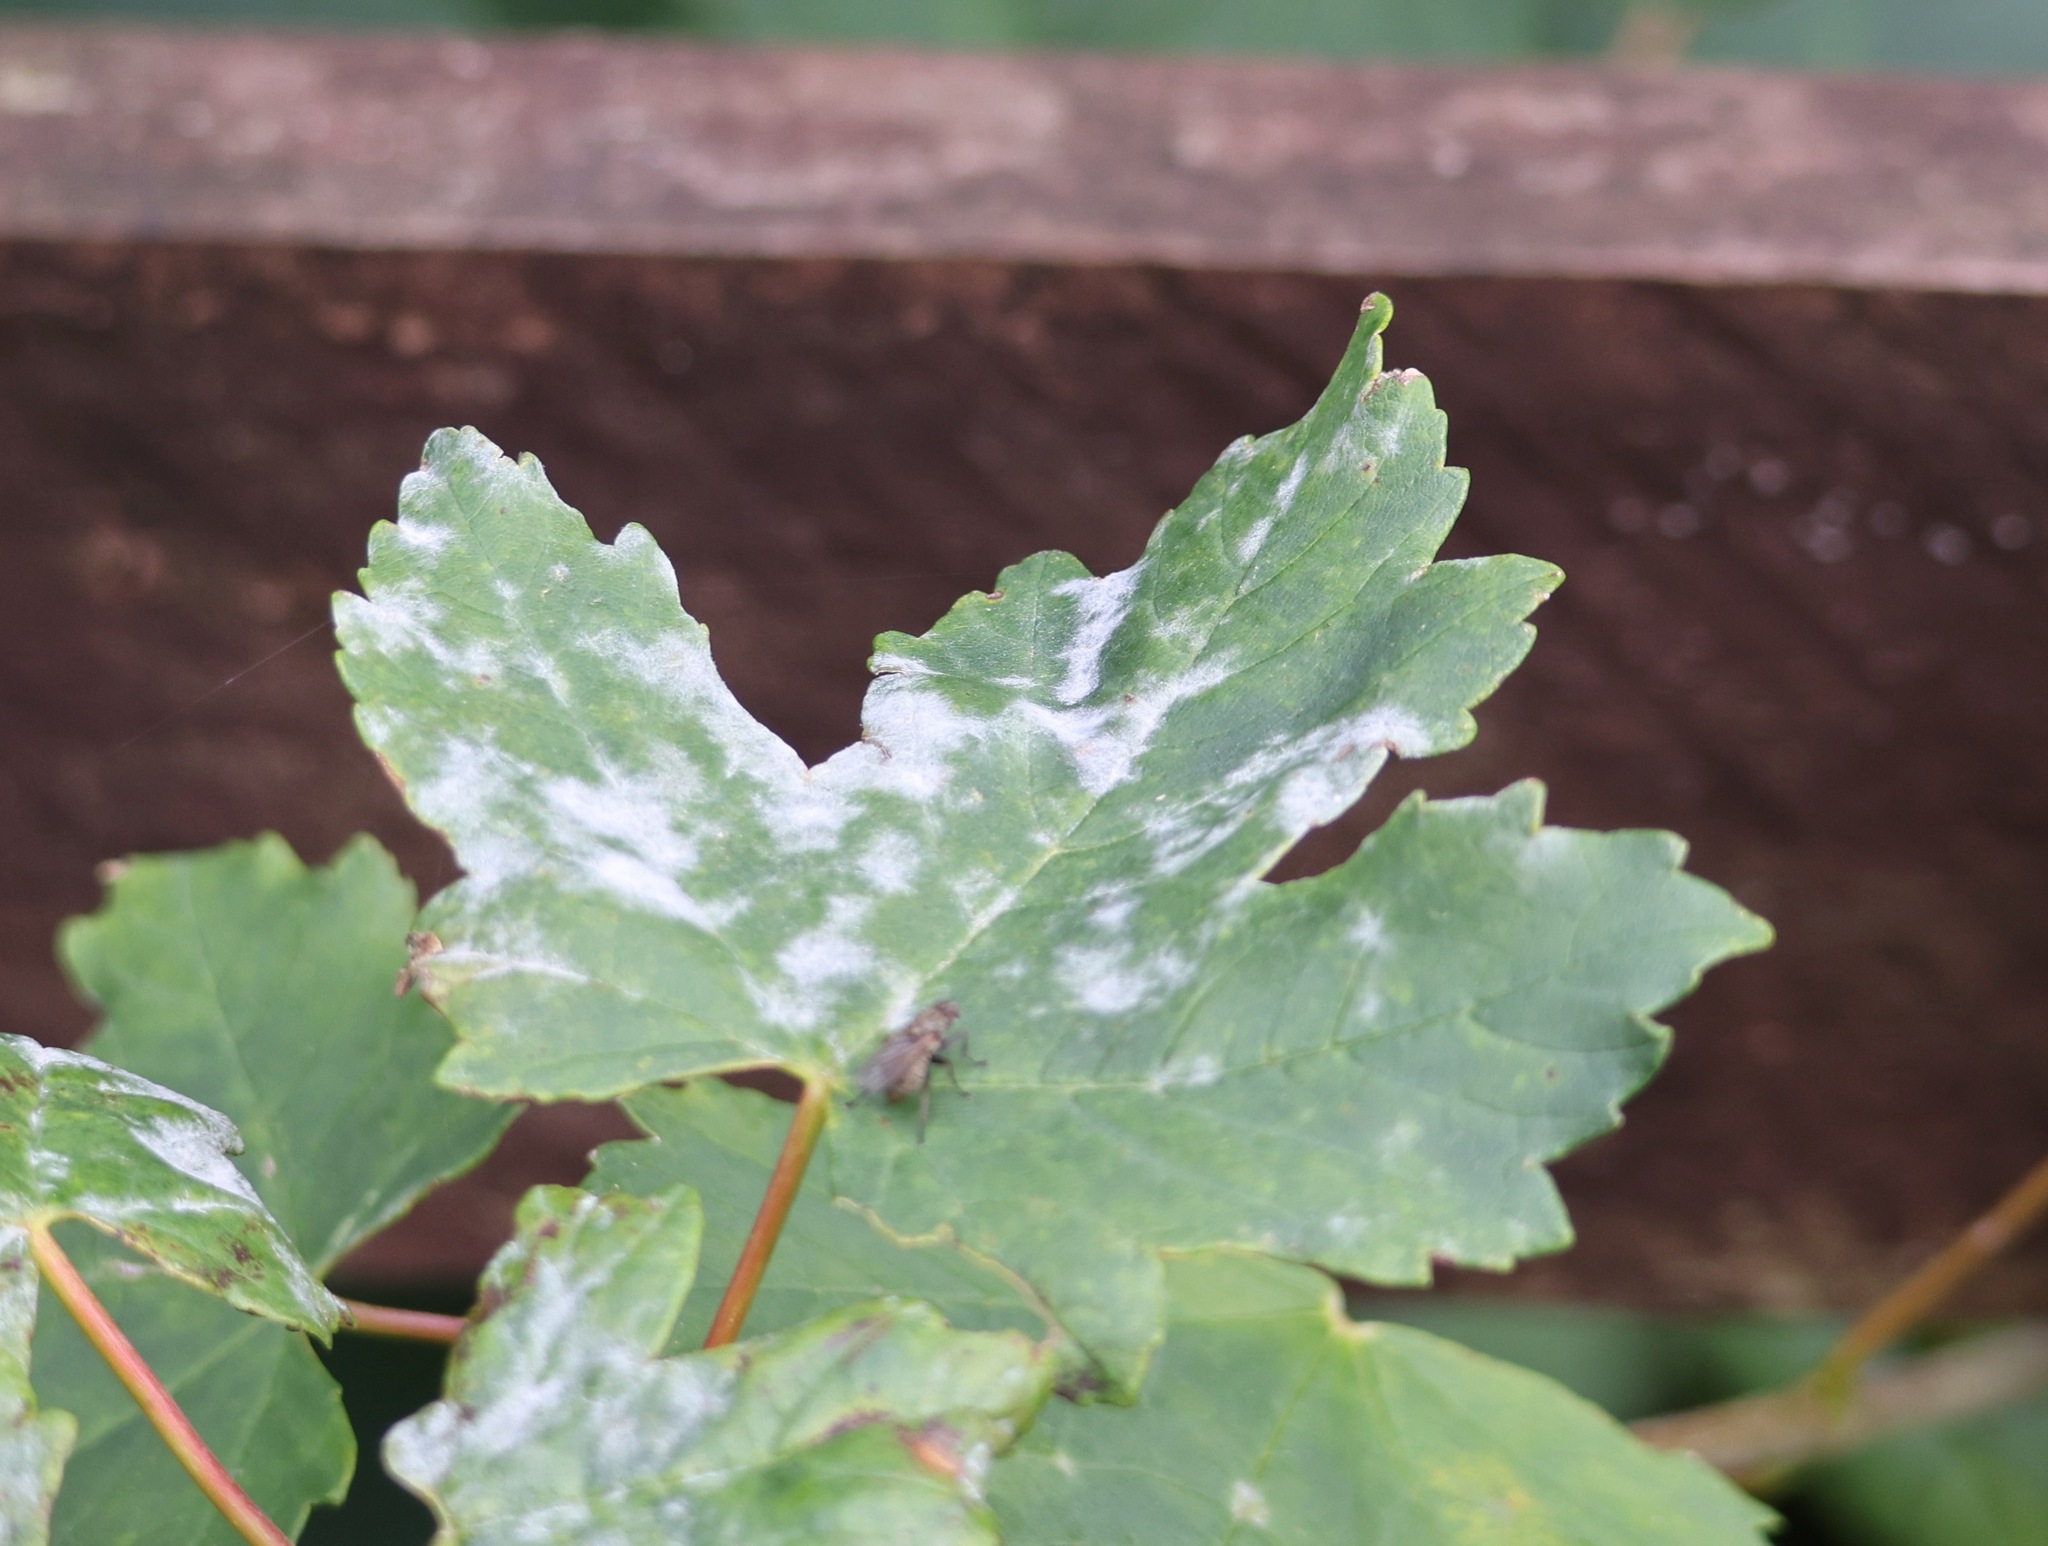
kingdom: Fungi
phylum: Ascomycota
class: Leotiomycetes
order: Helotiales
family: Erysiphaceae
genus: Sawadaea
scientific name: Sawadaea bicornis
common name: Maple mildew
